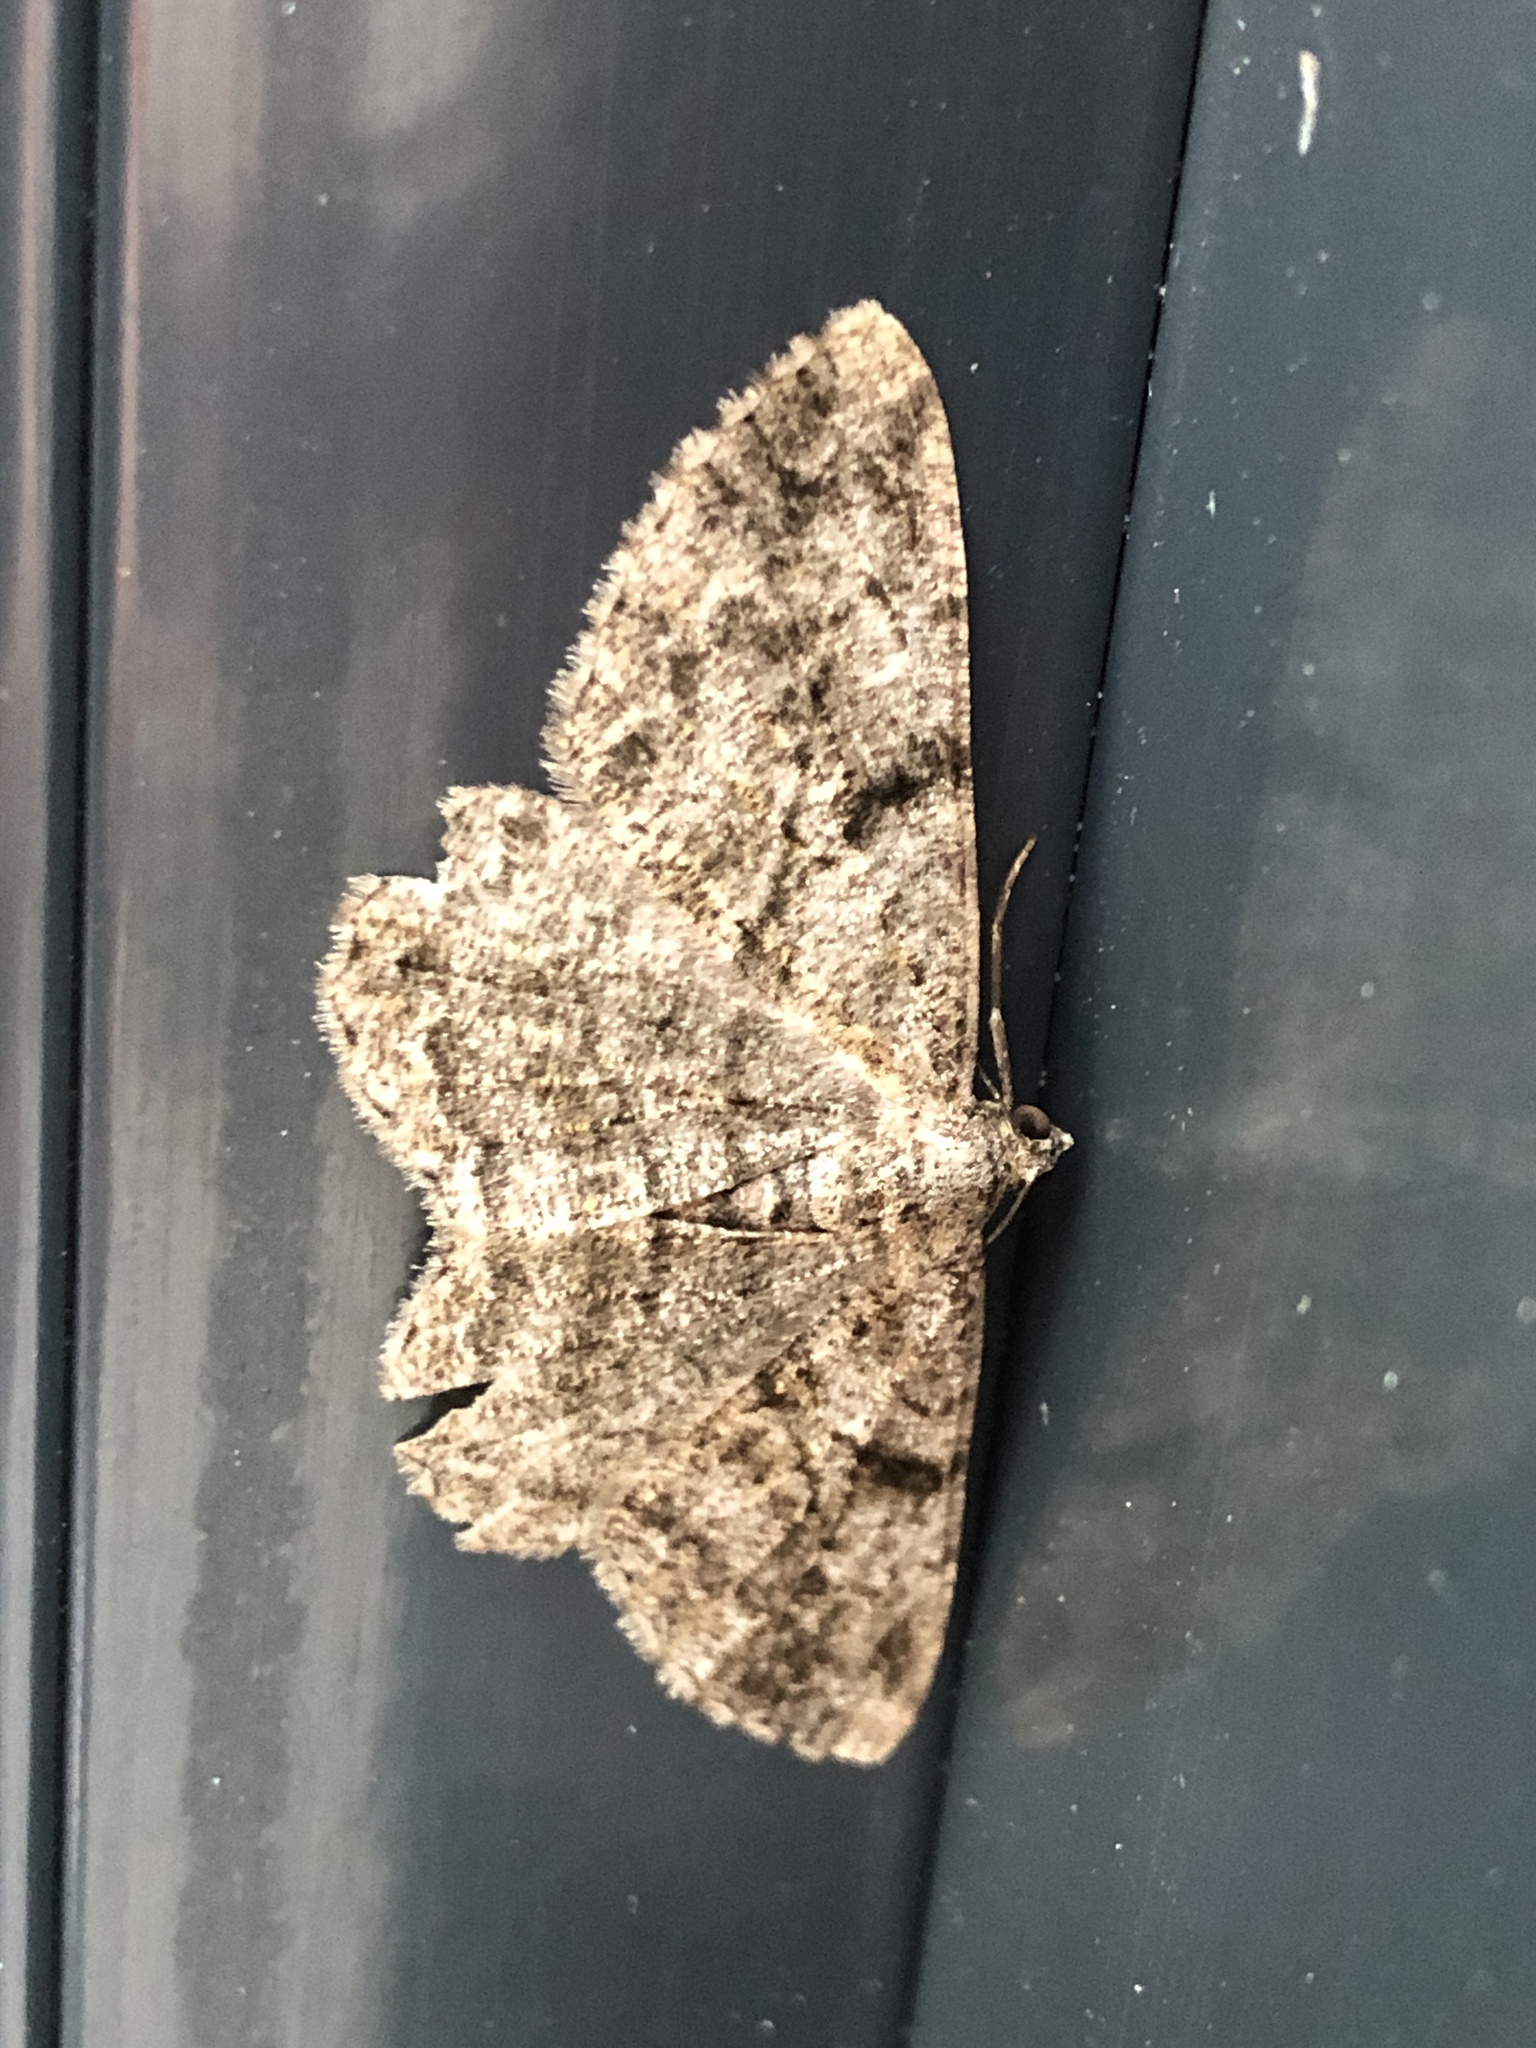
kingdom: Animalia
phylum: Arthropoda
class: Insecta
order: Lepidoptera
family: Geometridae
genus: Peribatodes
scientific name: Peribatodes rhomboidaria
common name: Willow beauty
